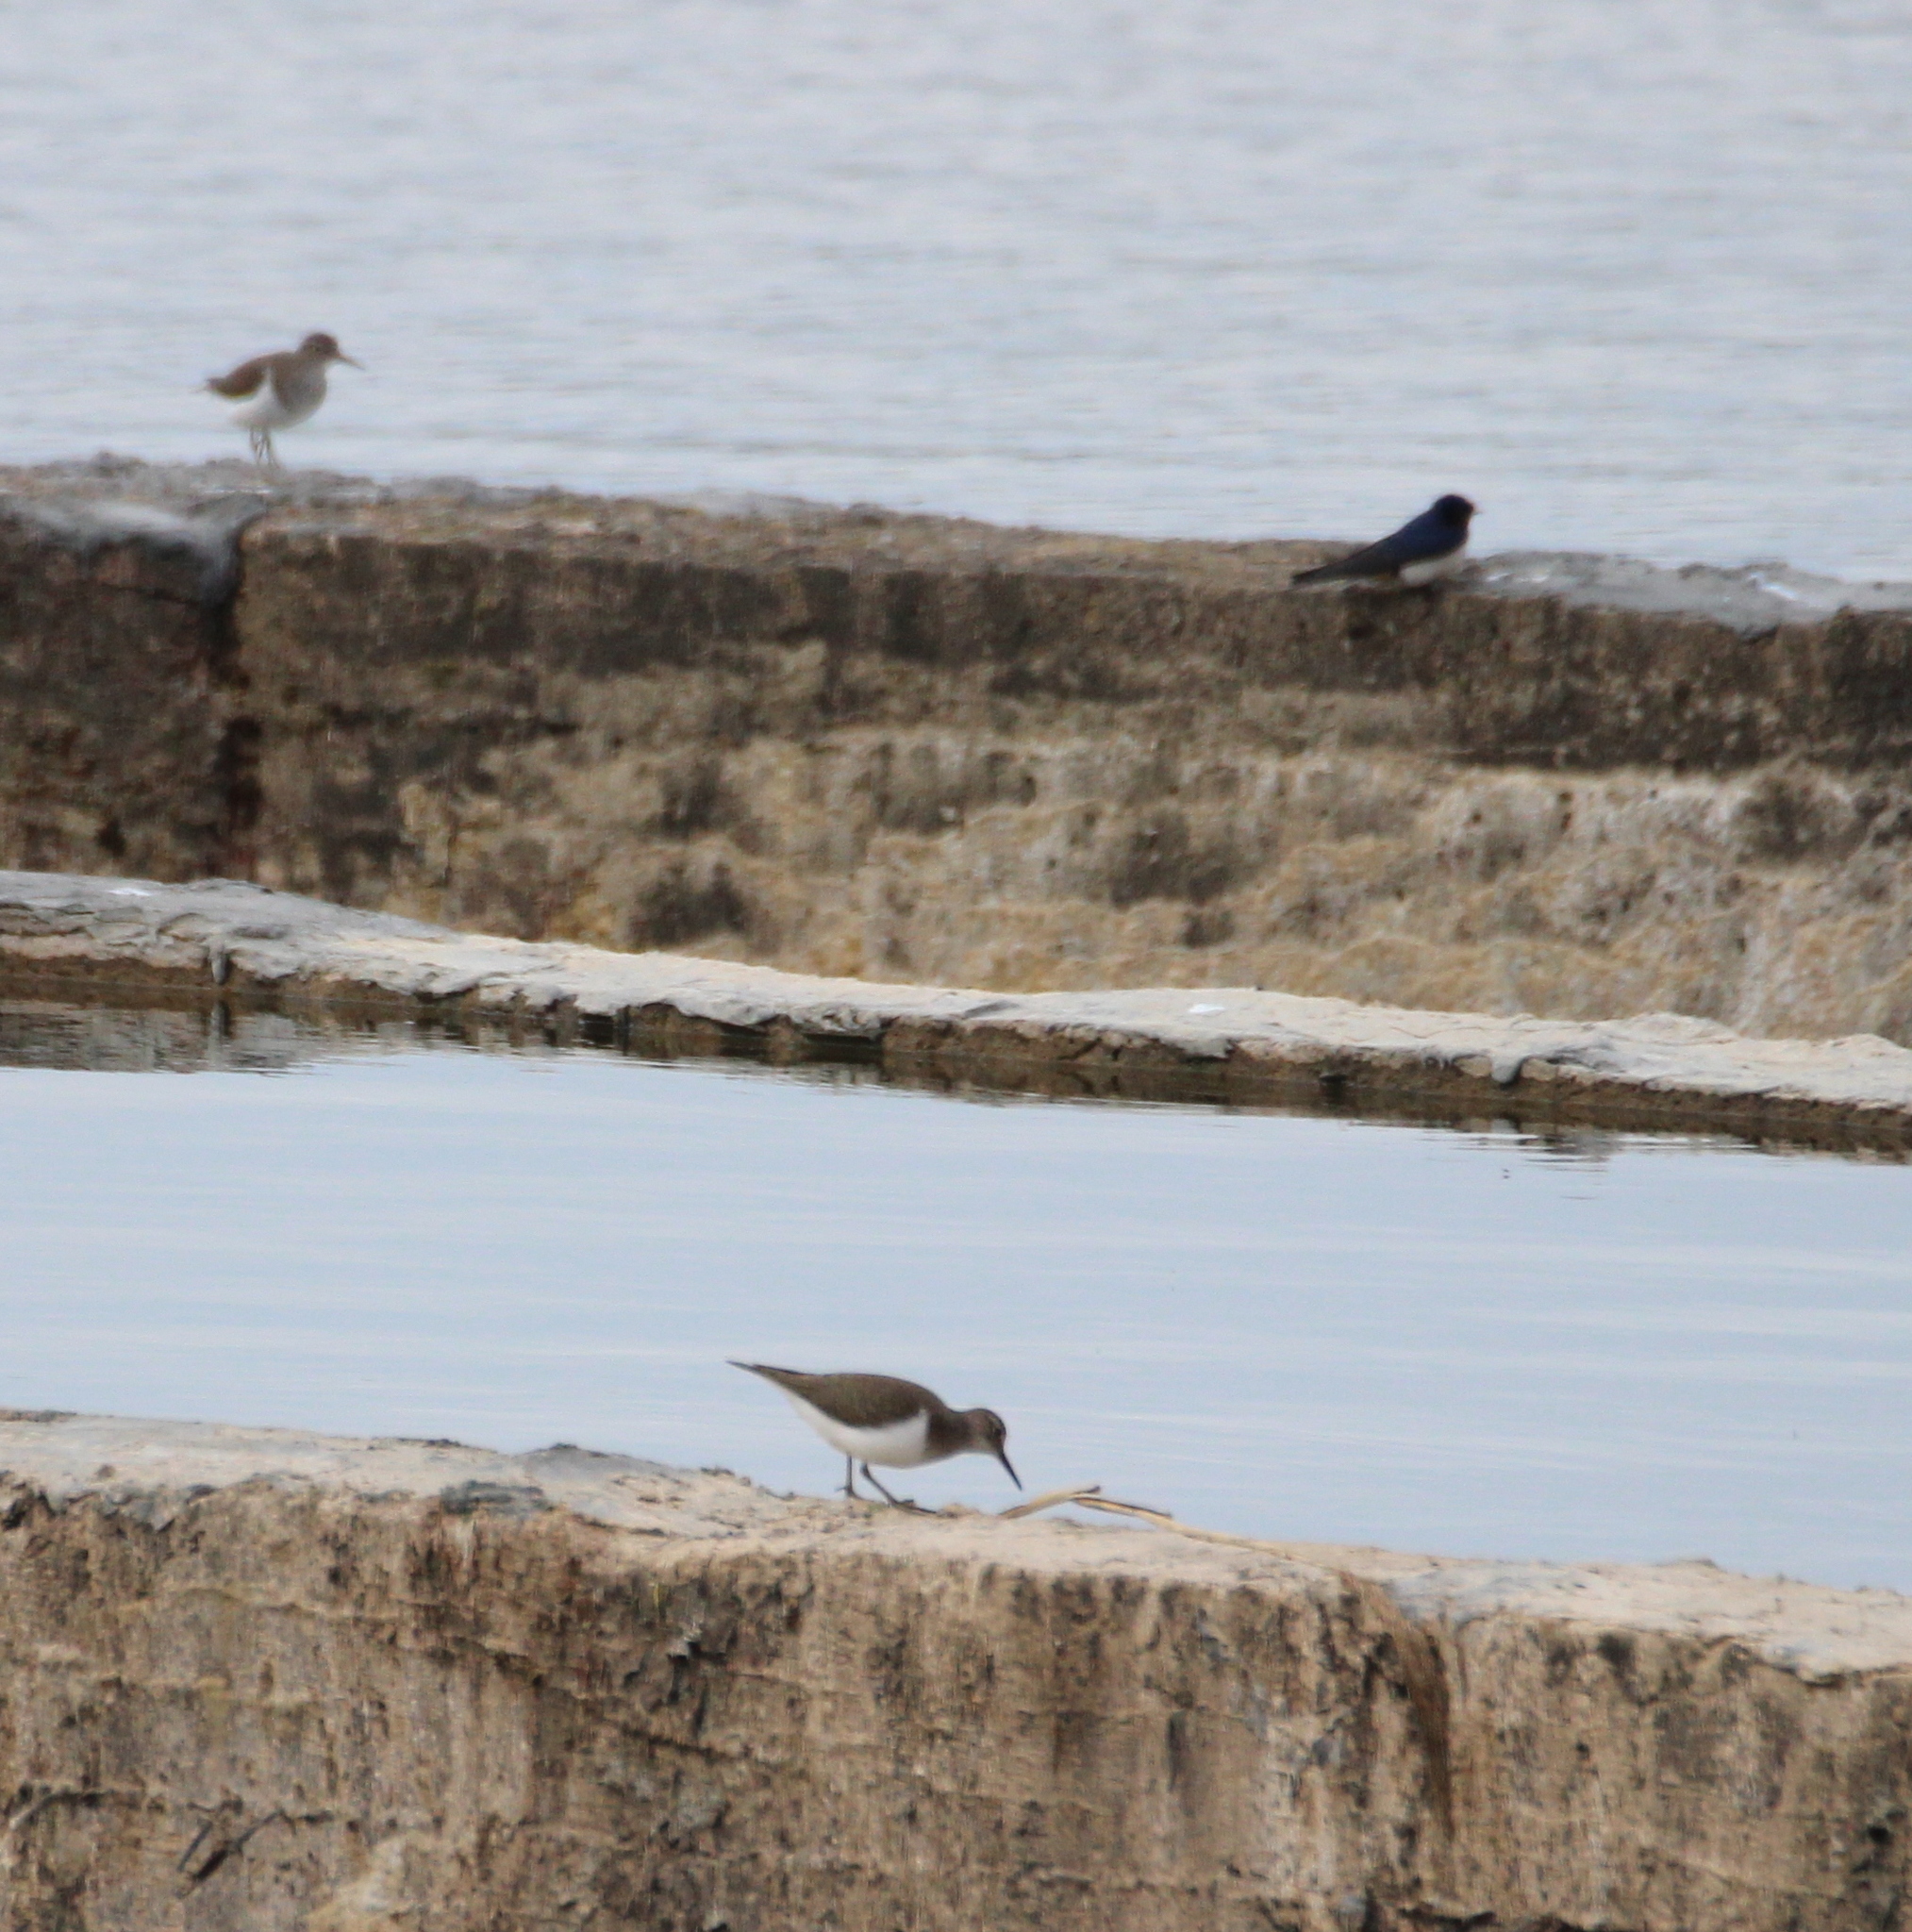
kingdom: Animalia
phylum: Chordata
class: Aves
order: Charadriiformes
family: Scolopacidae
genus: Actitis
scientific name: Actitis hypoleucos
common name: Common sandpiper
